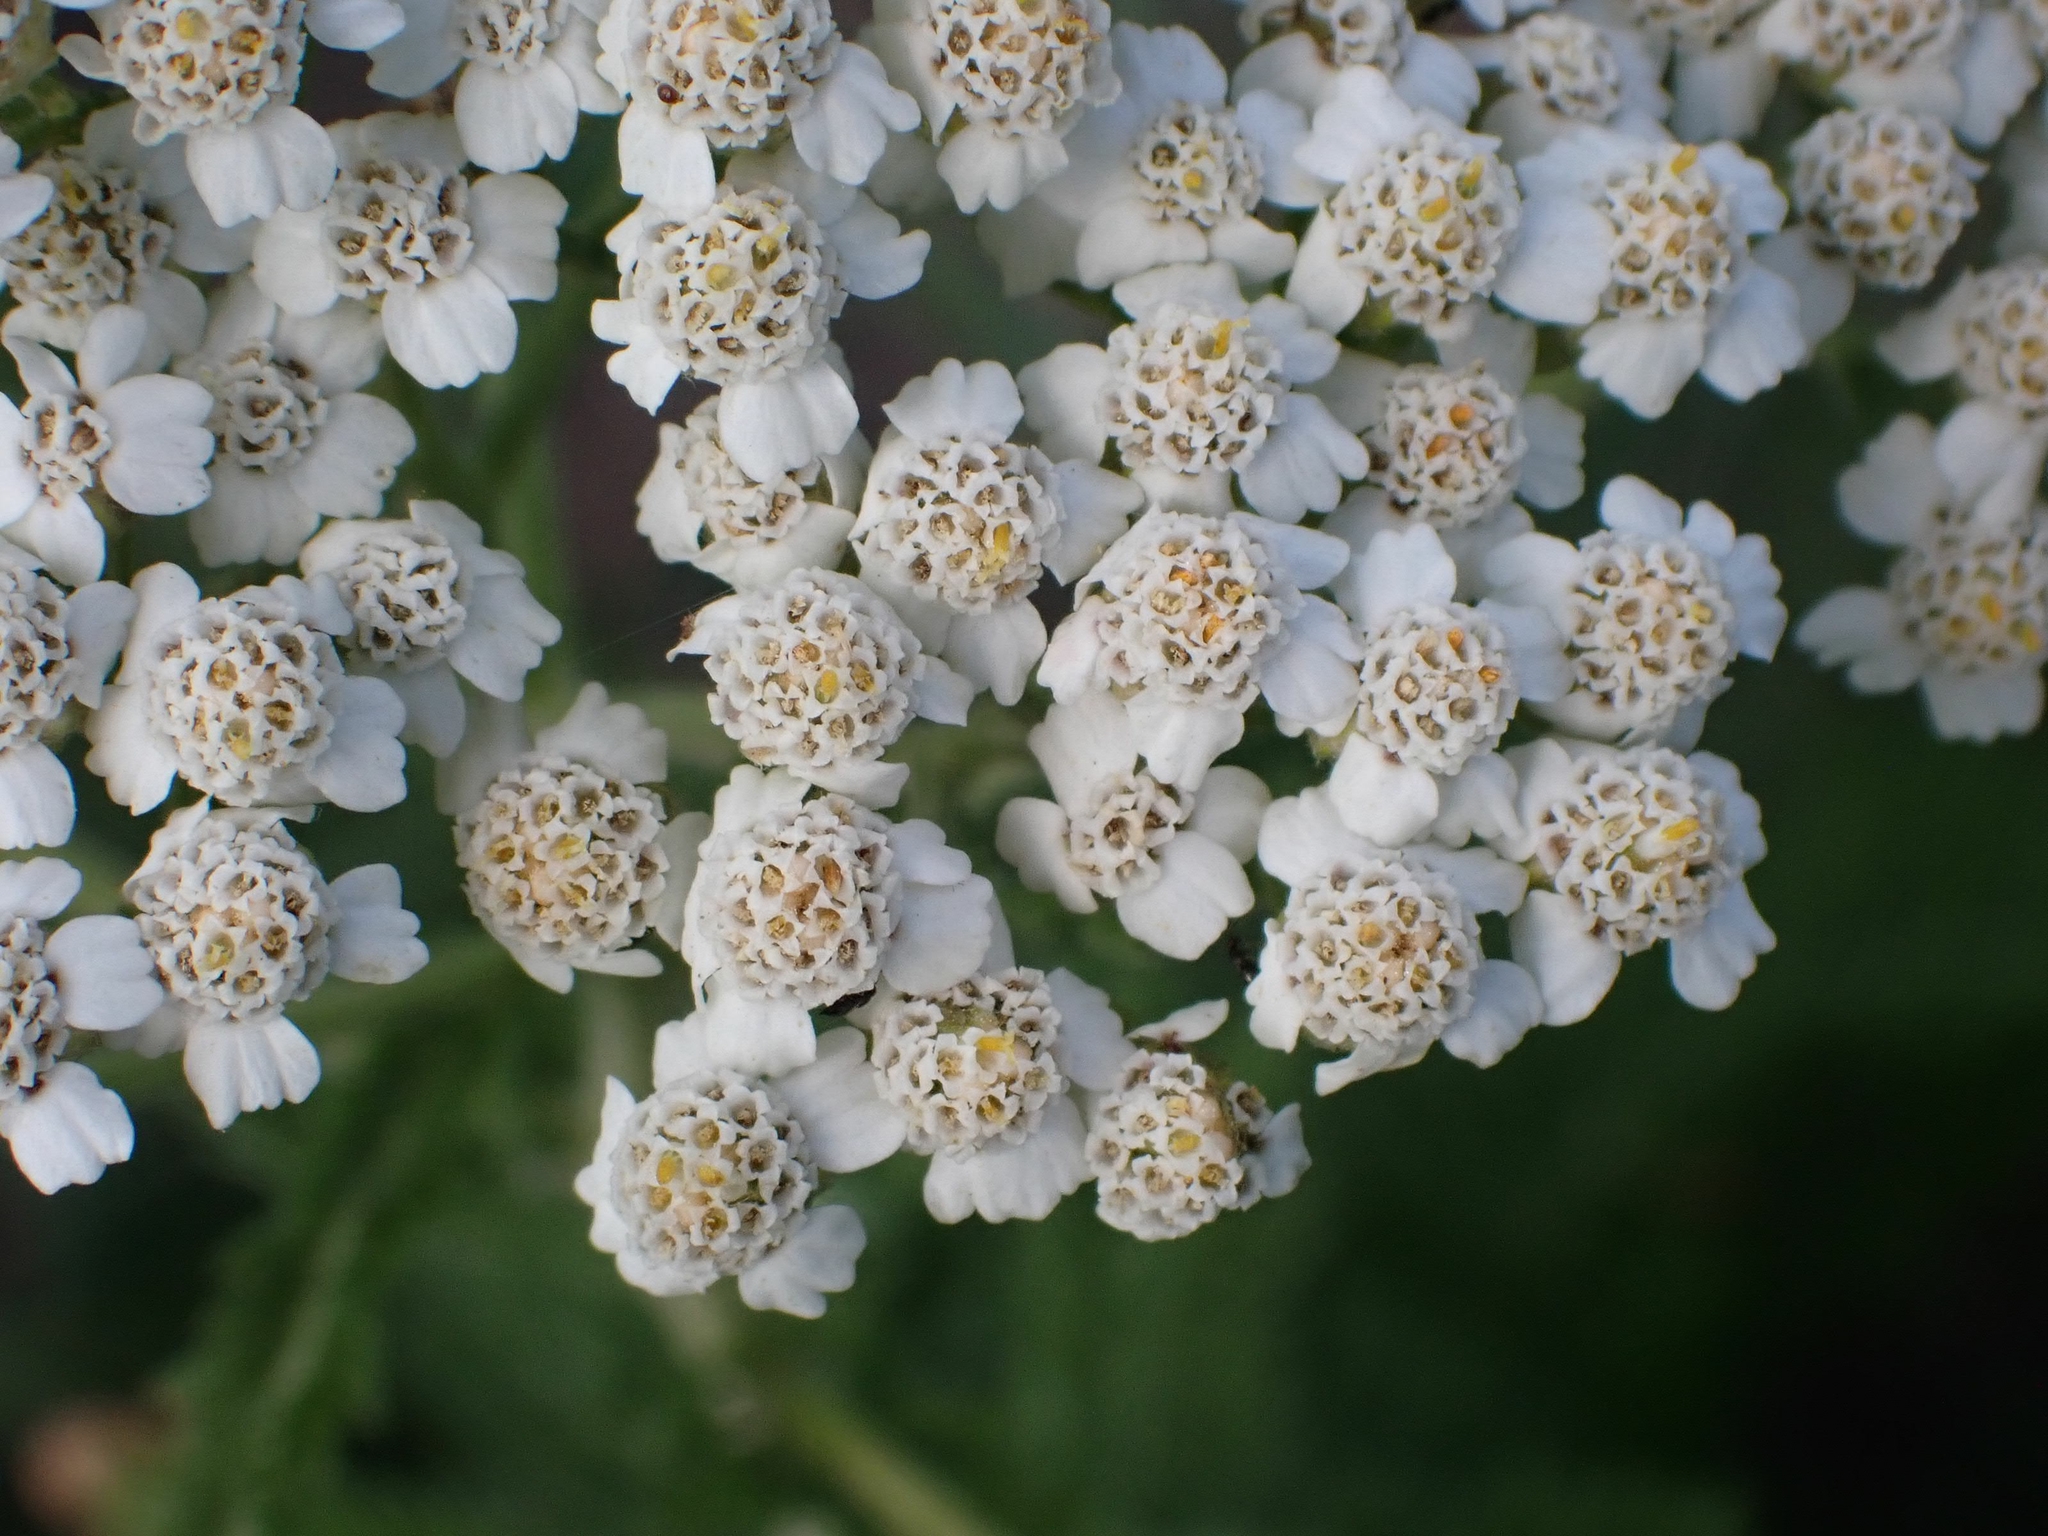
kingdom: Plantae
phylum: Tracheophyta
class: Magnoliopsida
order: Asterales
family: Asteraceae
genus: Achillea
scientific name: Achillea millefolium
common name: Yarrow
